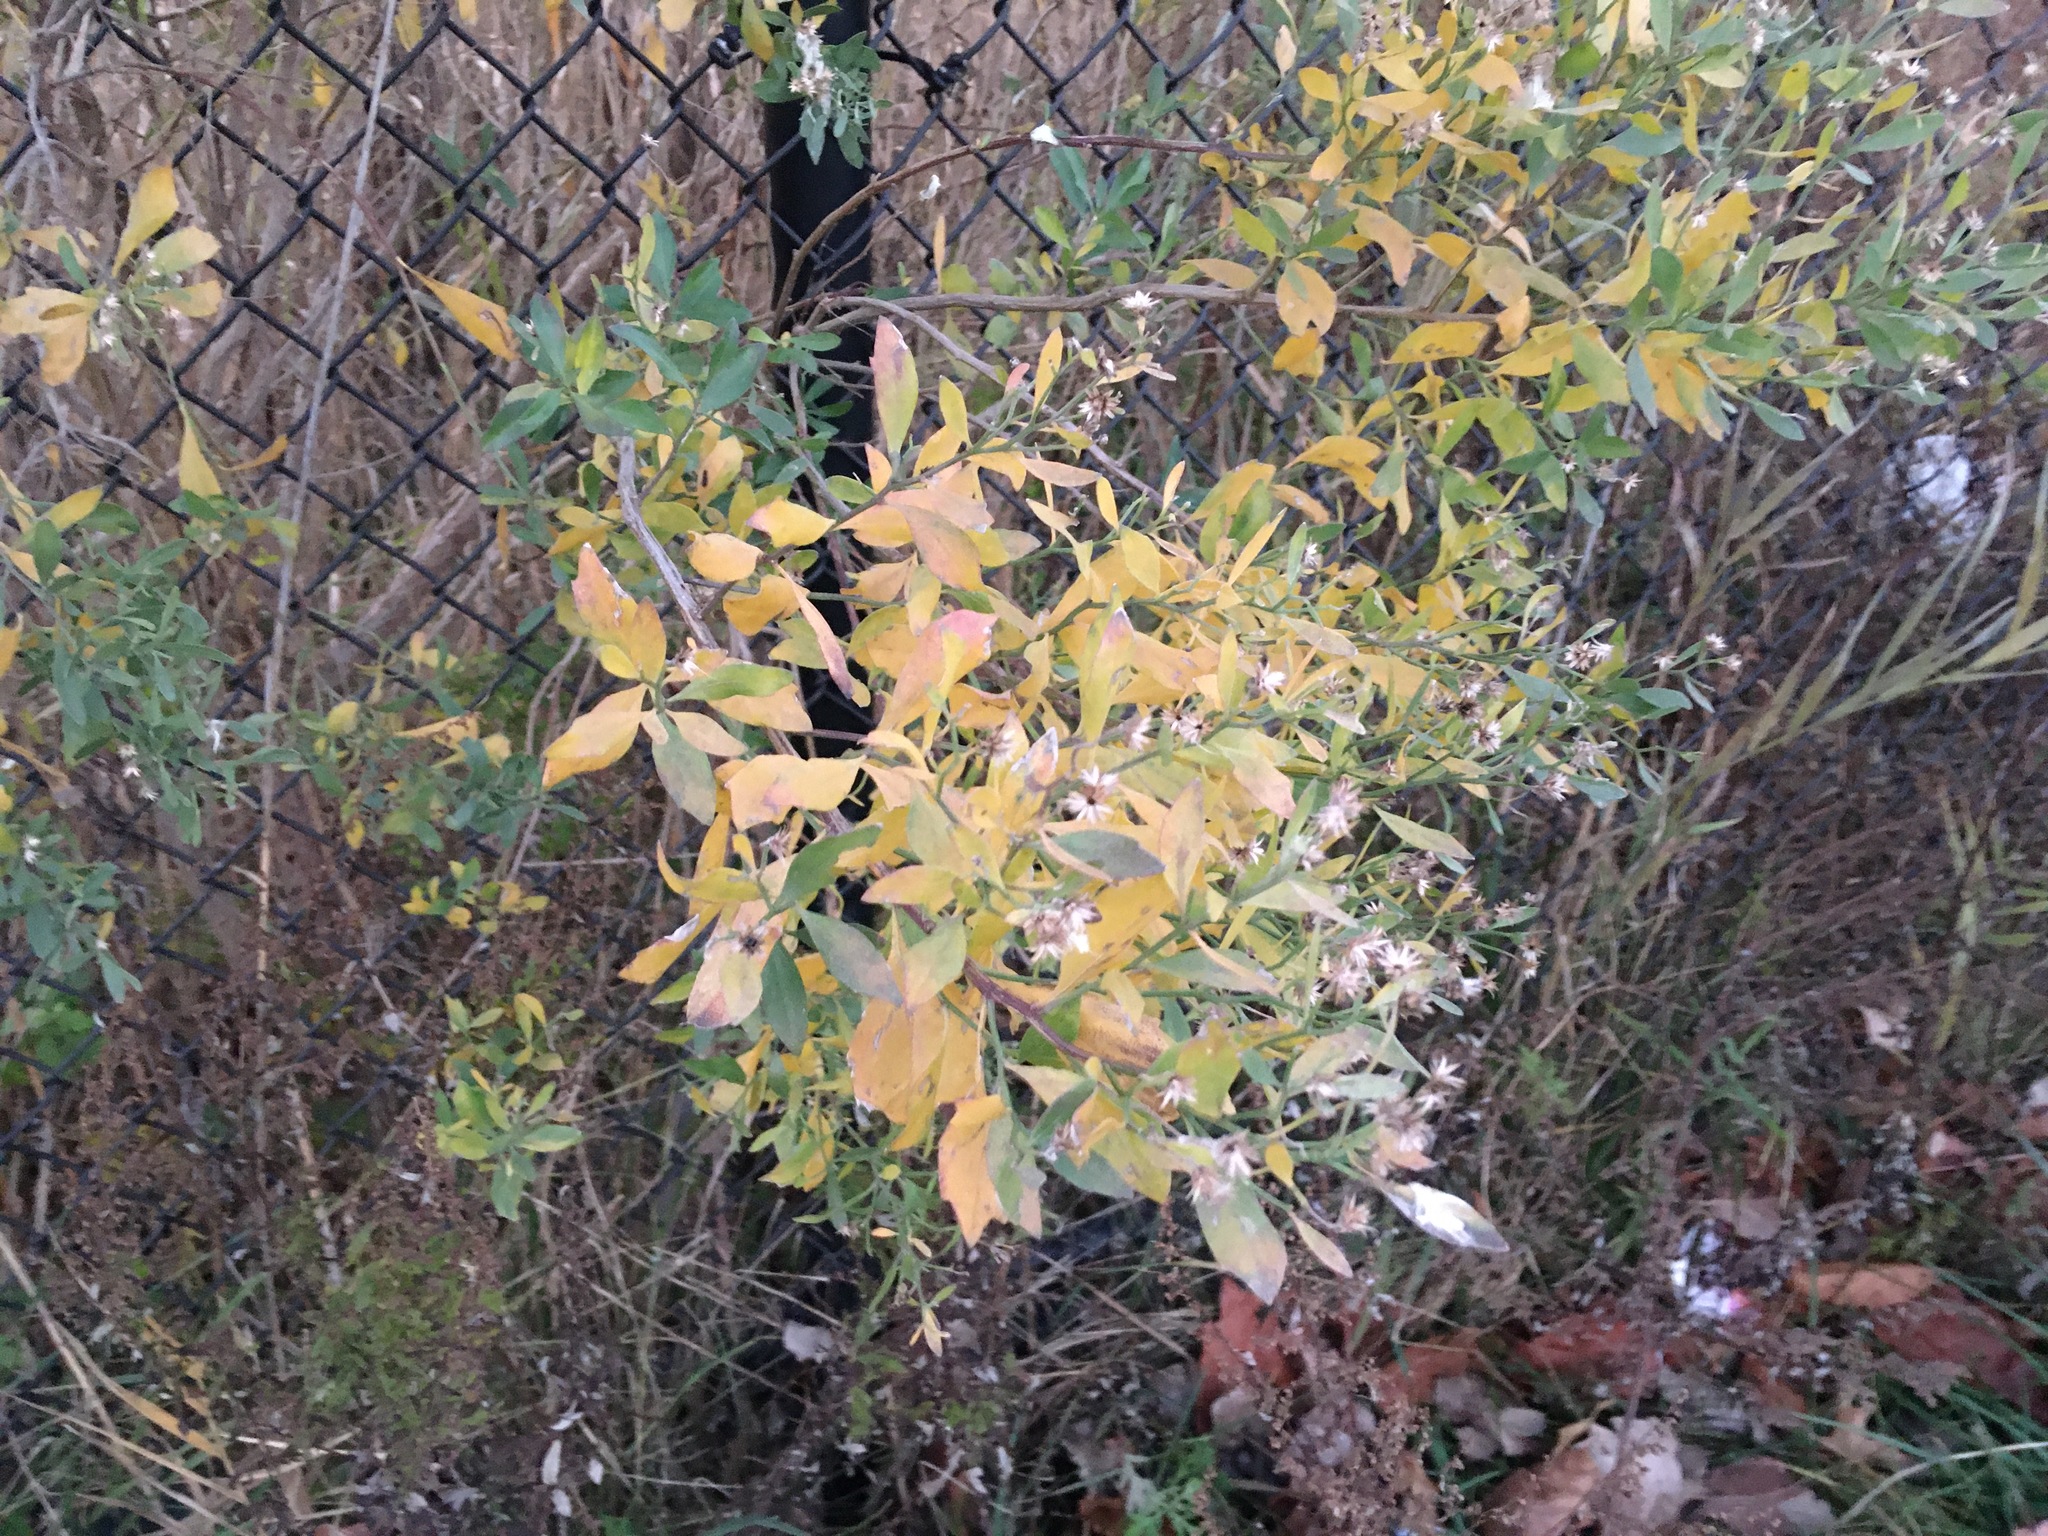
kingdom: Plantae
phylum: Tracheophyta
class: Magnoliopsida
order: Asterales
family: Asteraceae
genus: Baccharis
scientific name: Baccharis halimifolia
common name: Eastern baccharis
